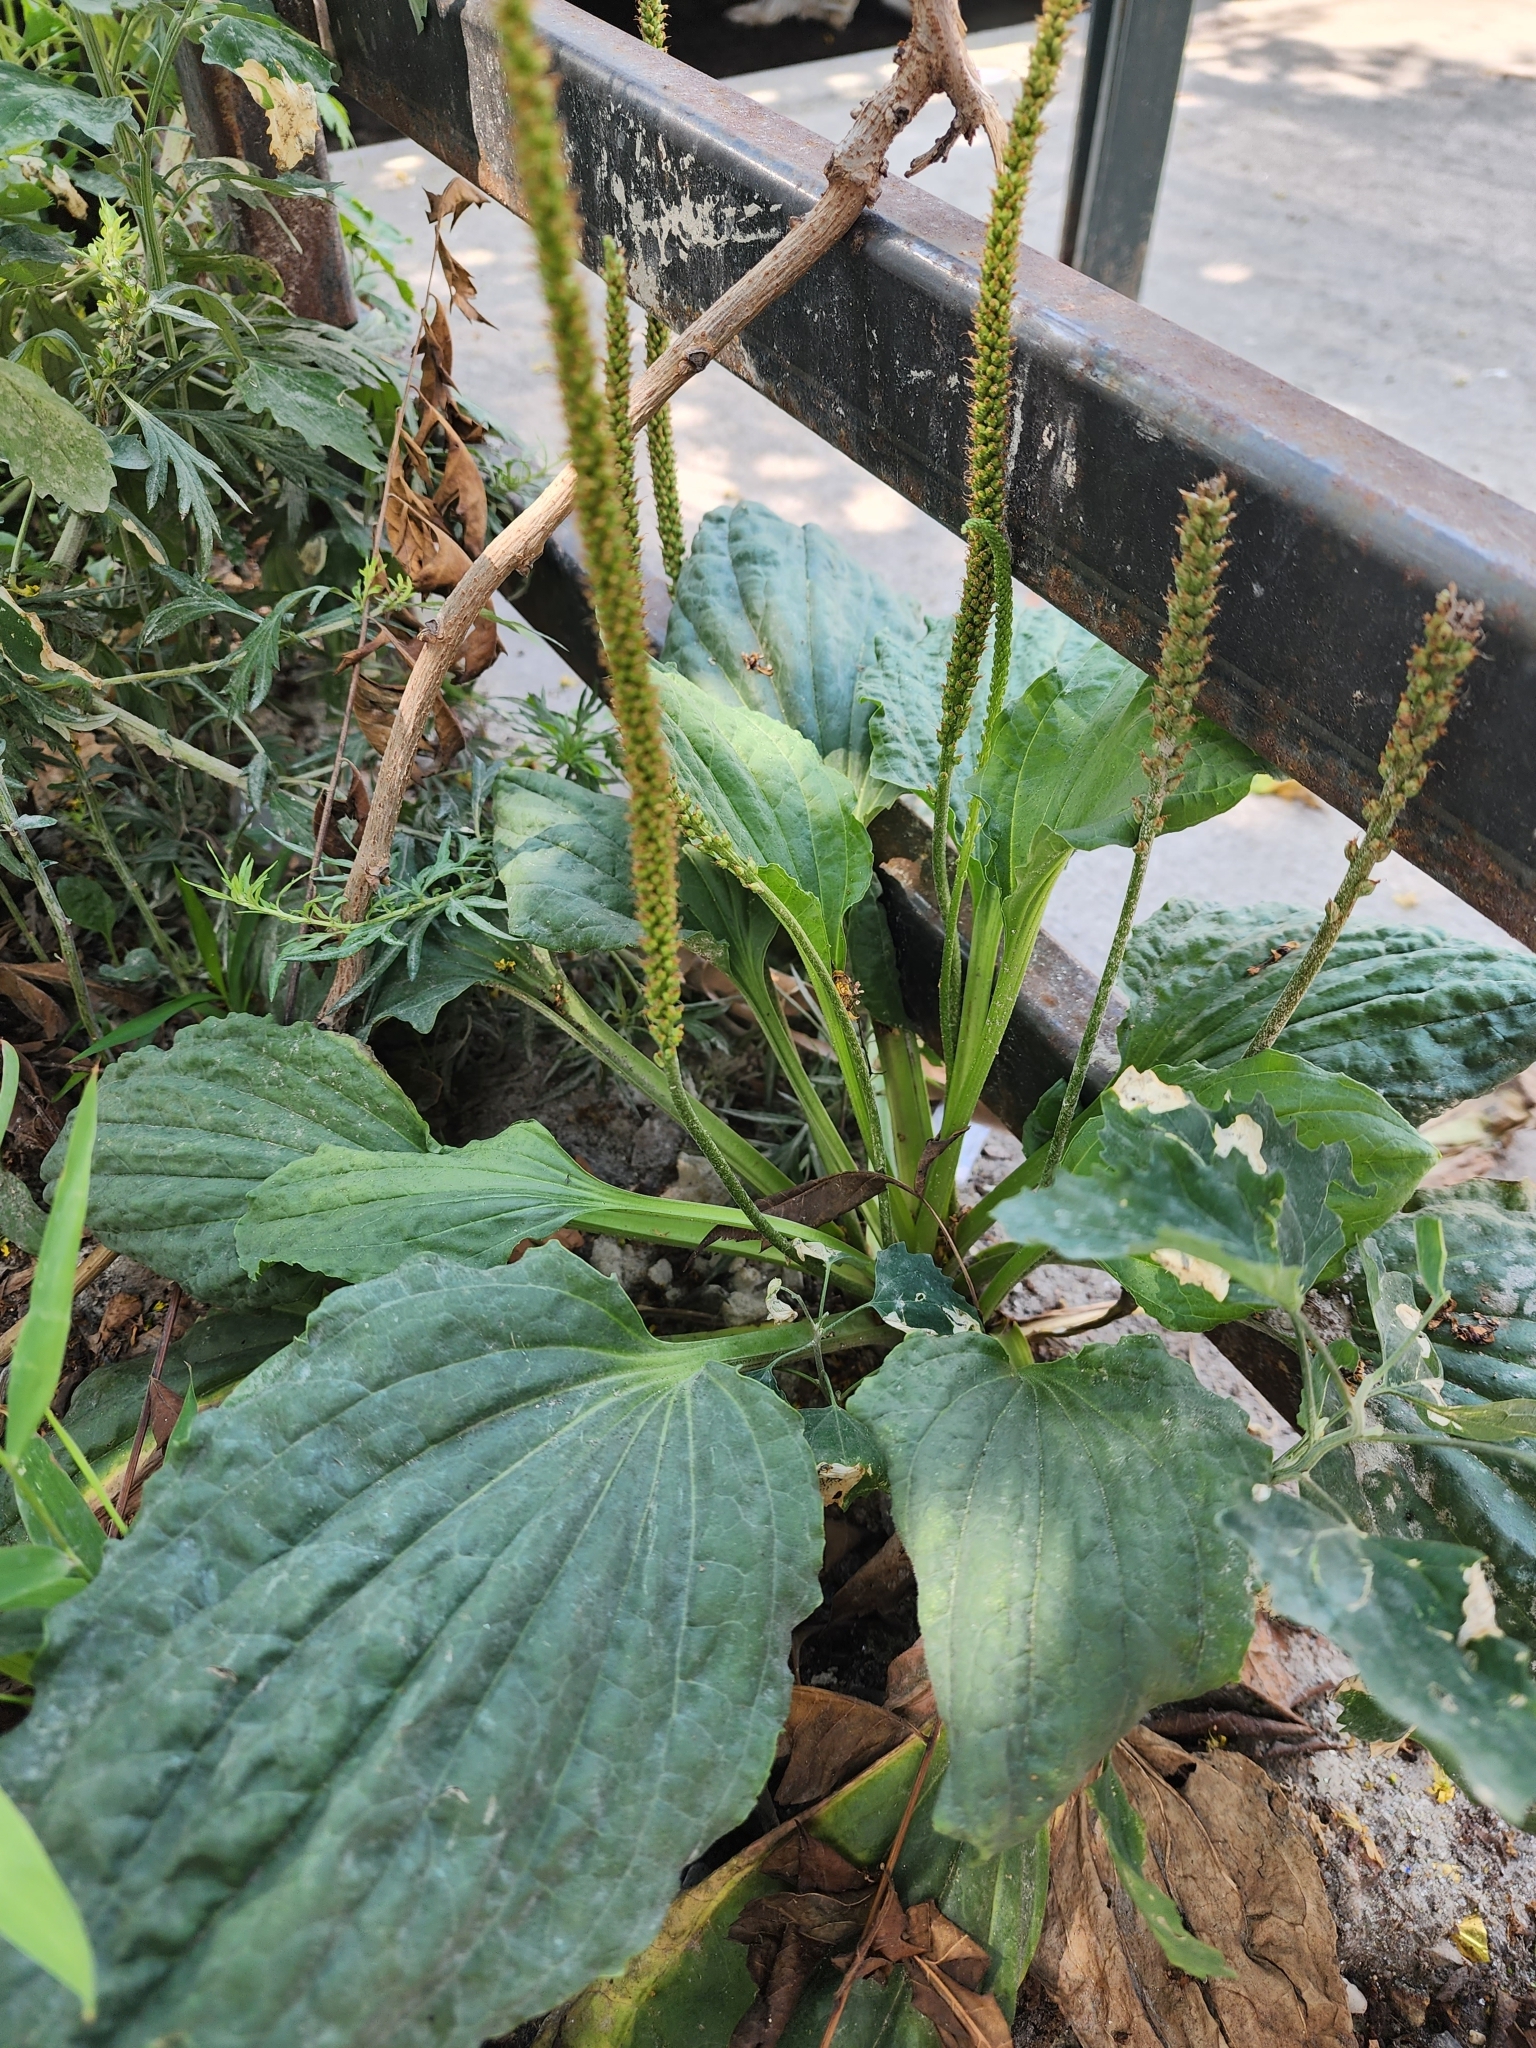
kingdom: Plantae
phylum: Tracheophyta
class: Magnoliopsida
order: Lamiales
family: Plantaginaceae
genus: Plantago
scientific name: Plantago major
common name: Common plantain
